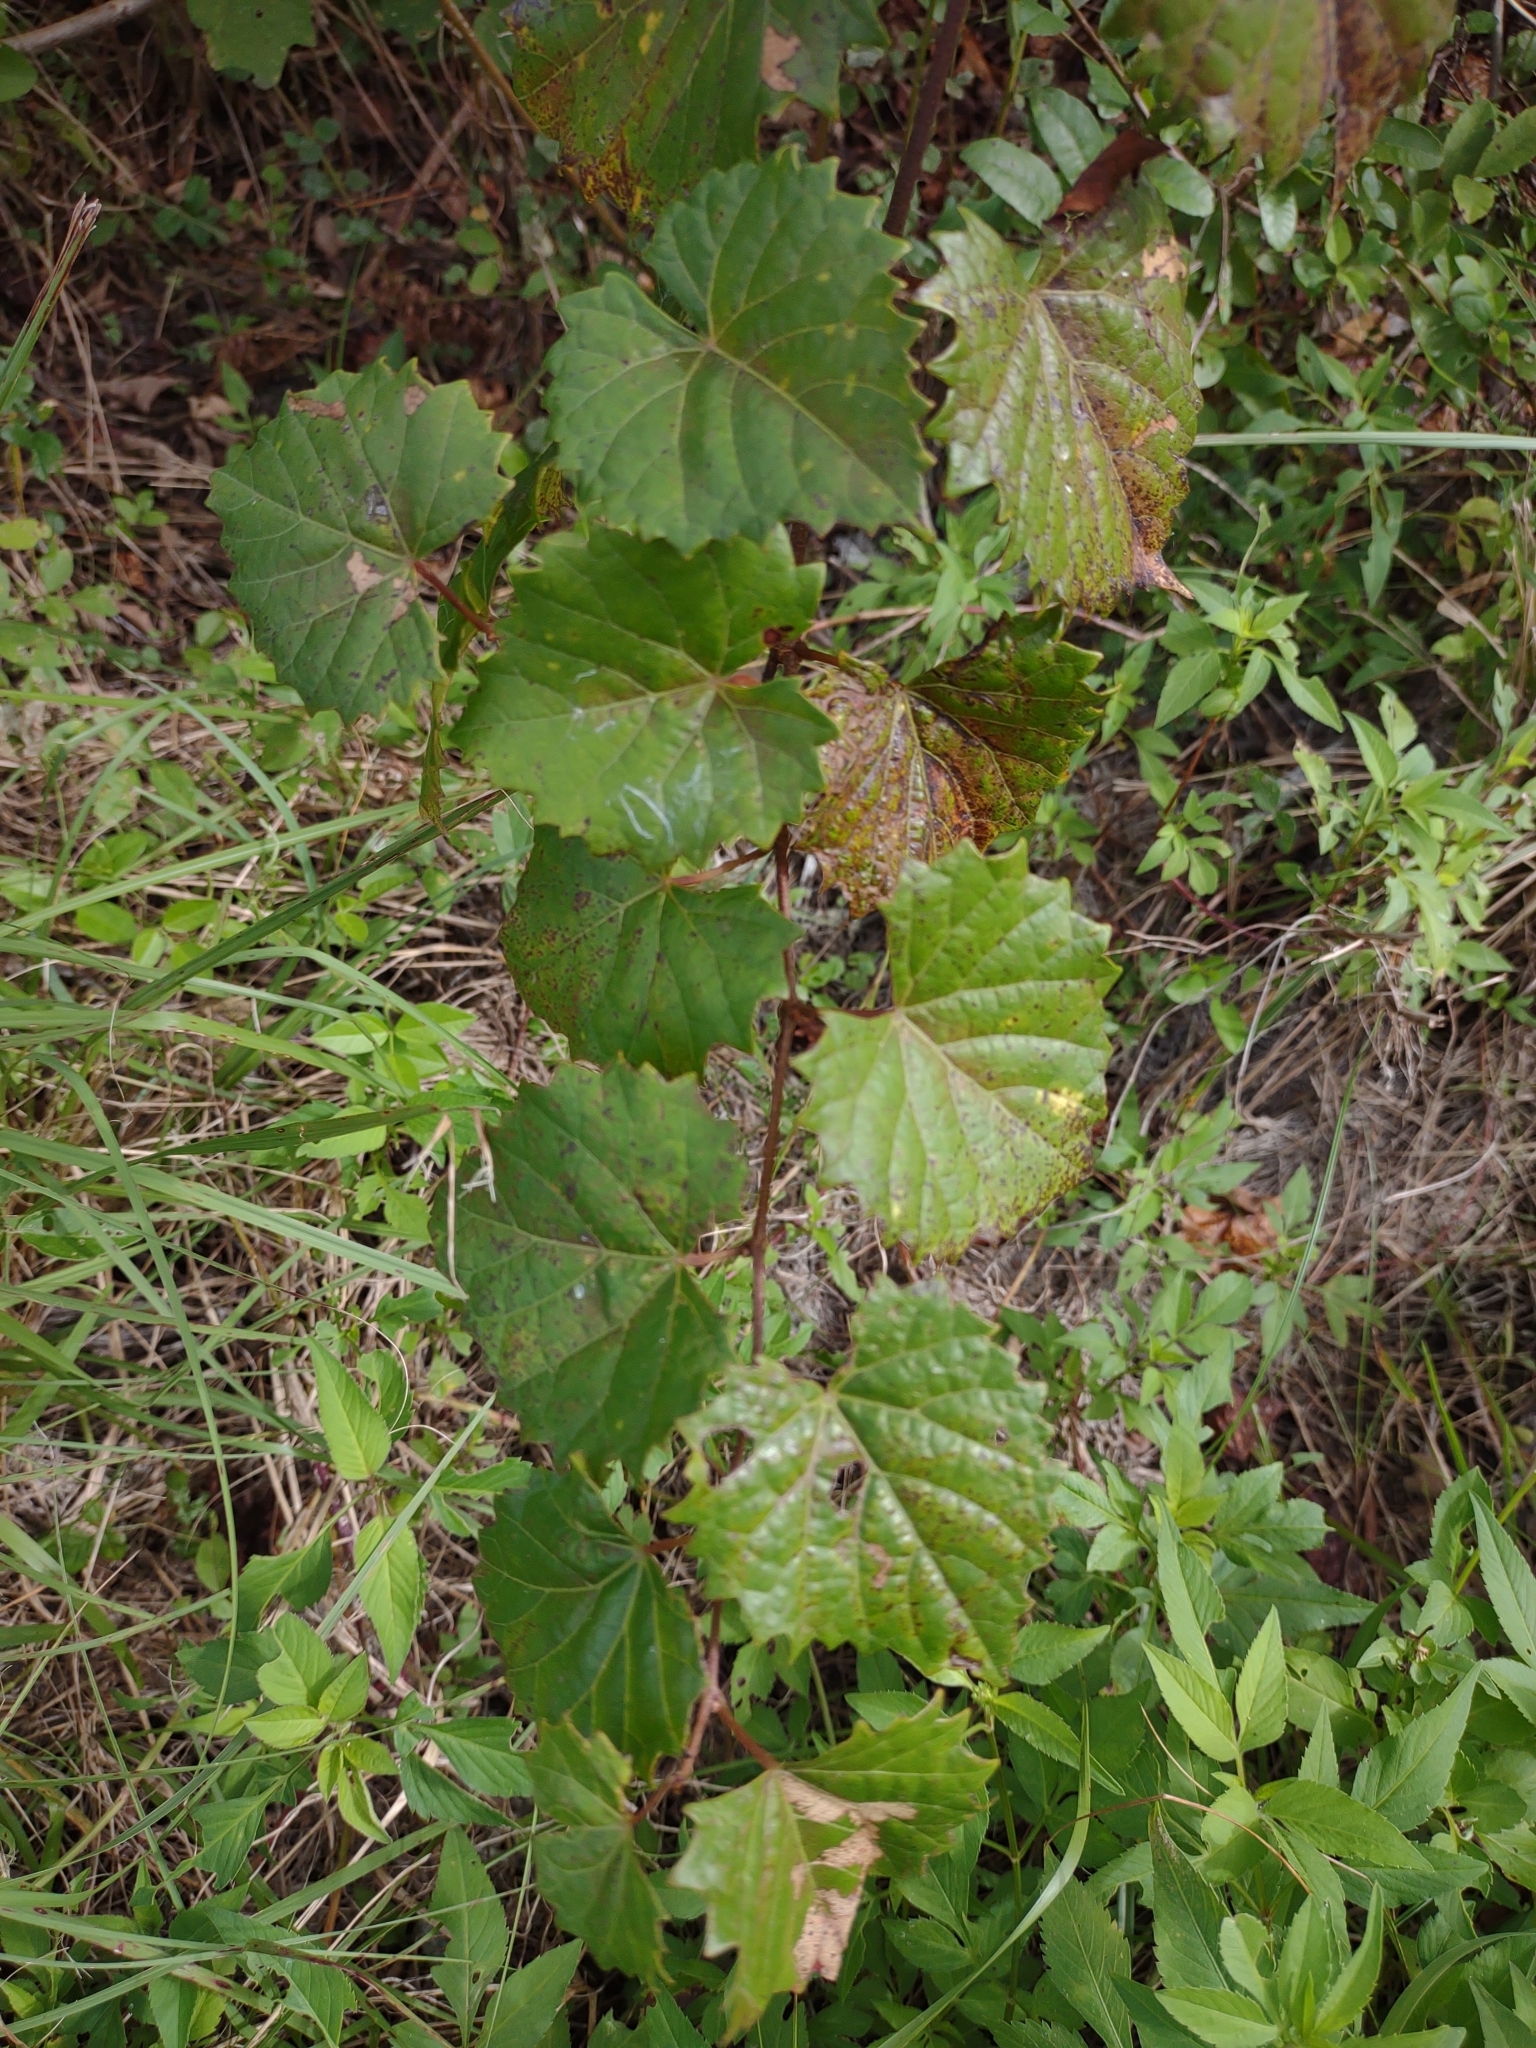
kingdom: Plantae
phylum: Tracheophyta
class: Magnoliopsida
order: Vitales
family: Vitaceae
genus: Vitis
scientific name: Vitis rotundifolia
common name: Muscadine grape
